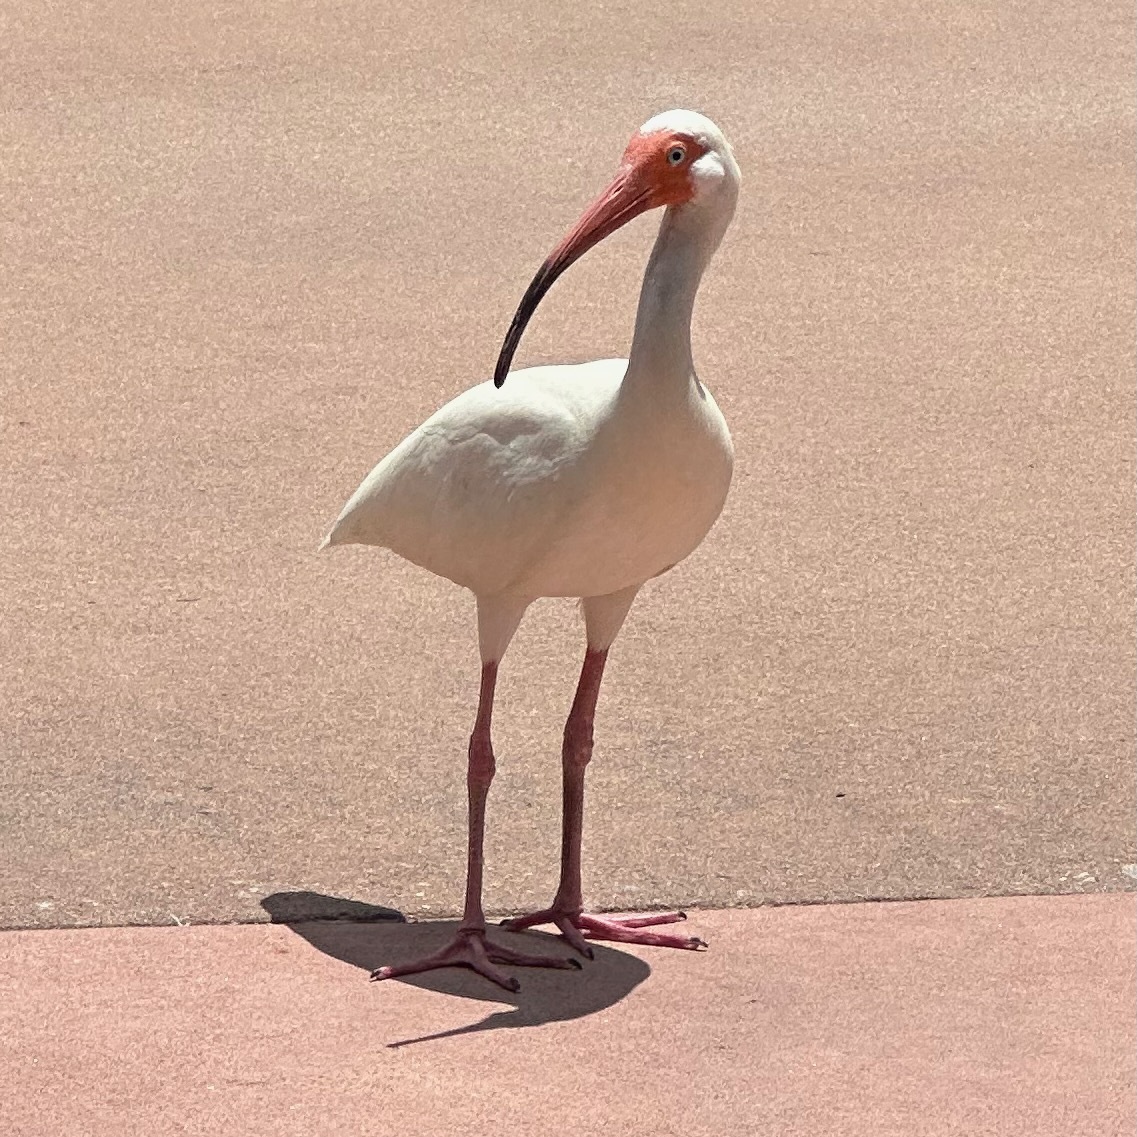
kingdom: Animalia
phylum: Chordata
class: Aves
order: Pelecaniformes
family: Threskiornithidae
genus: Eudocimus
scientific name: Eudocimus albus
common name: White ibis
